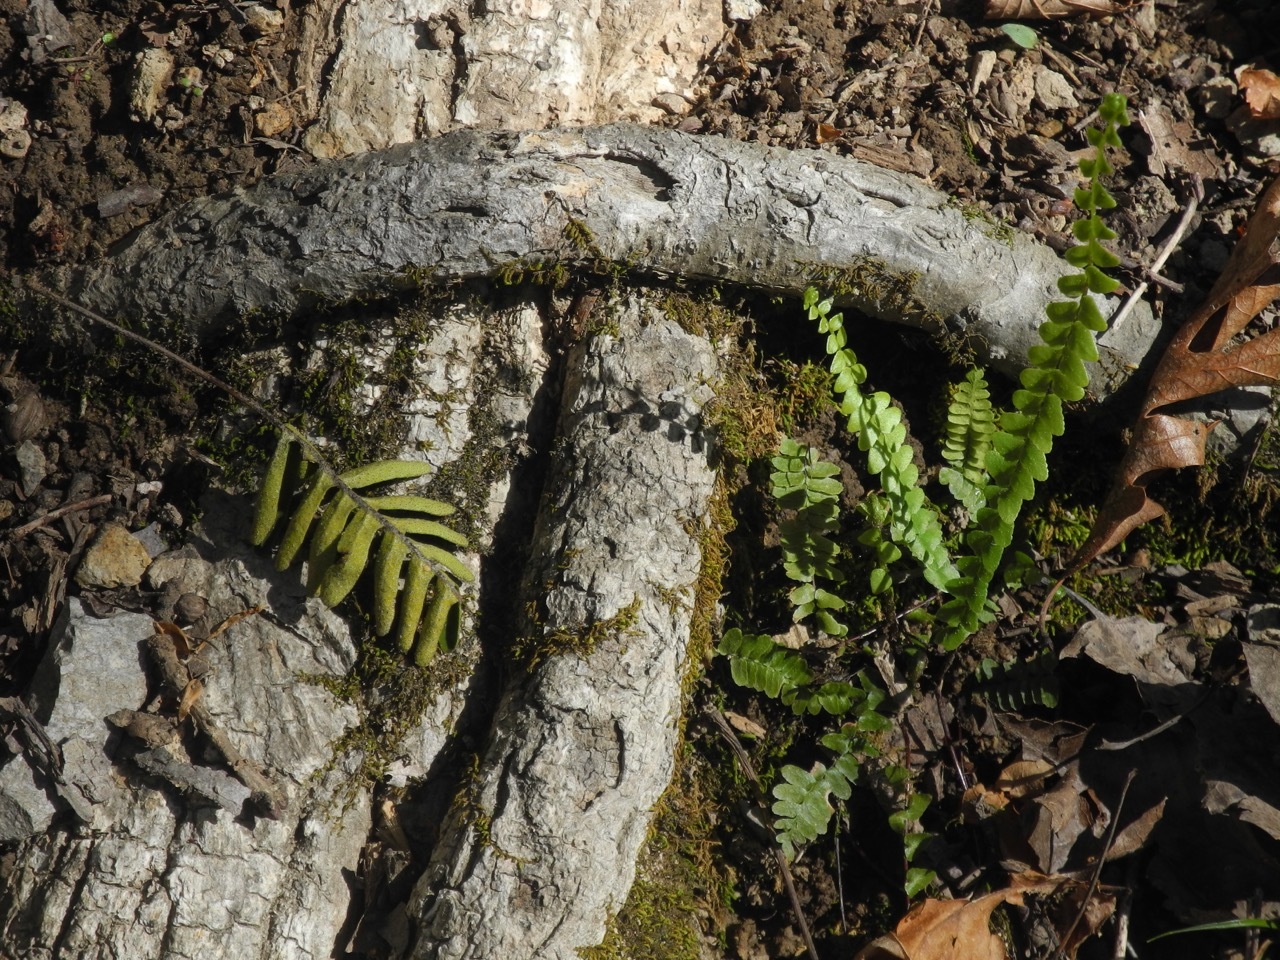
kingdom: Plantae
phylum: Tracheophyta
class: Polypodiopsida
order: Polypodiales
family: Aspleniaceae
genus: Asplenium
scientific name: Asplenium platyneuron
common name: Ebony spleenwort
